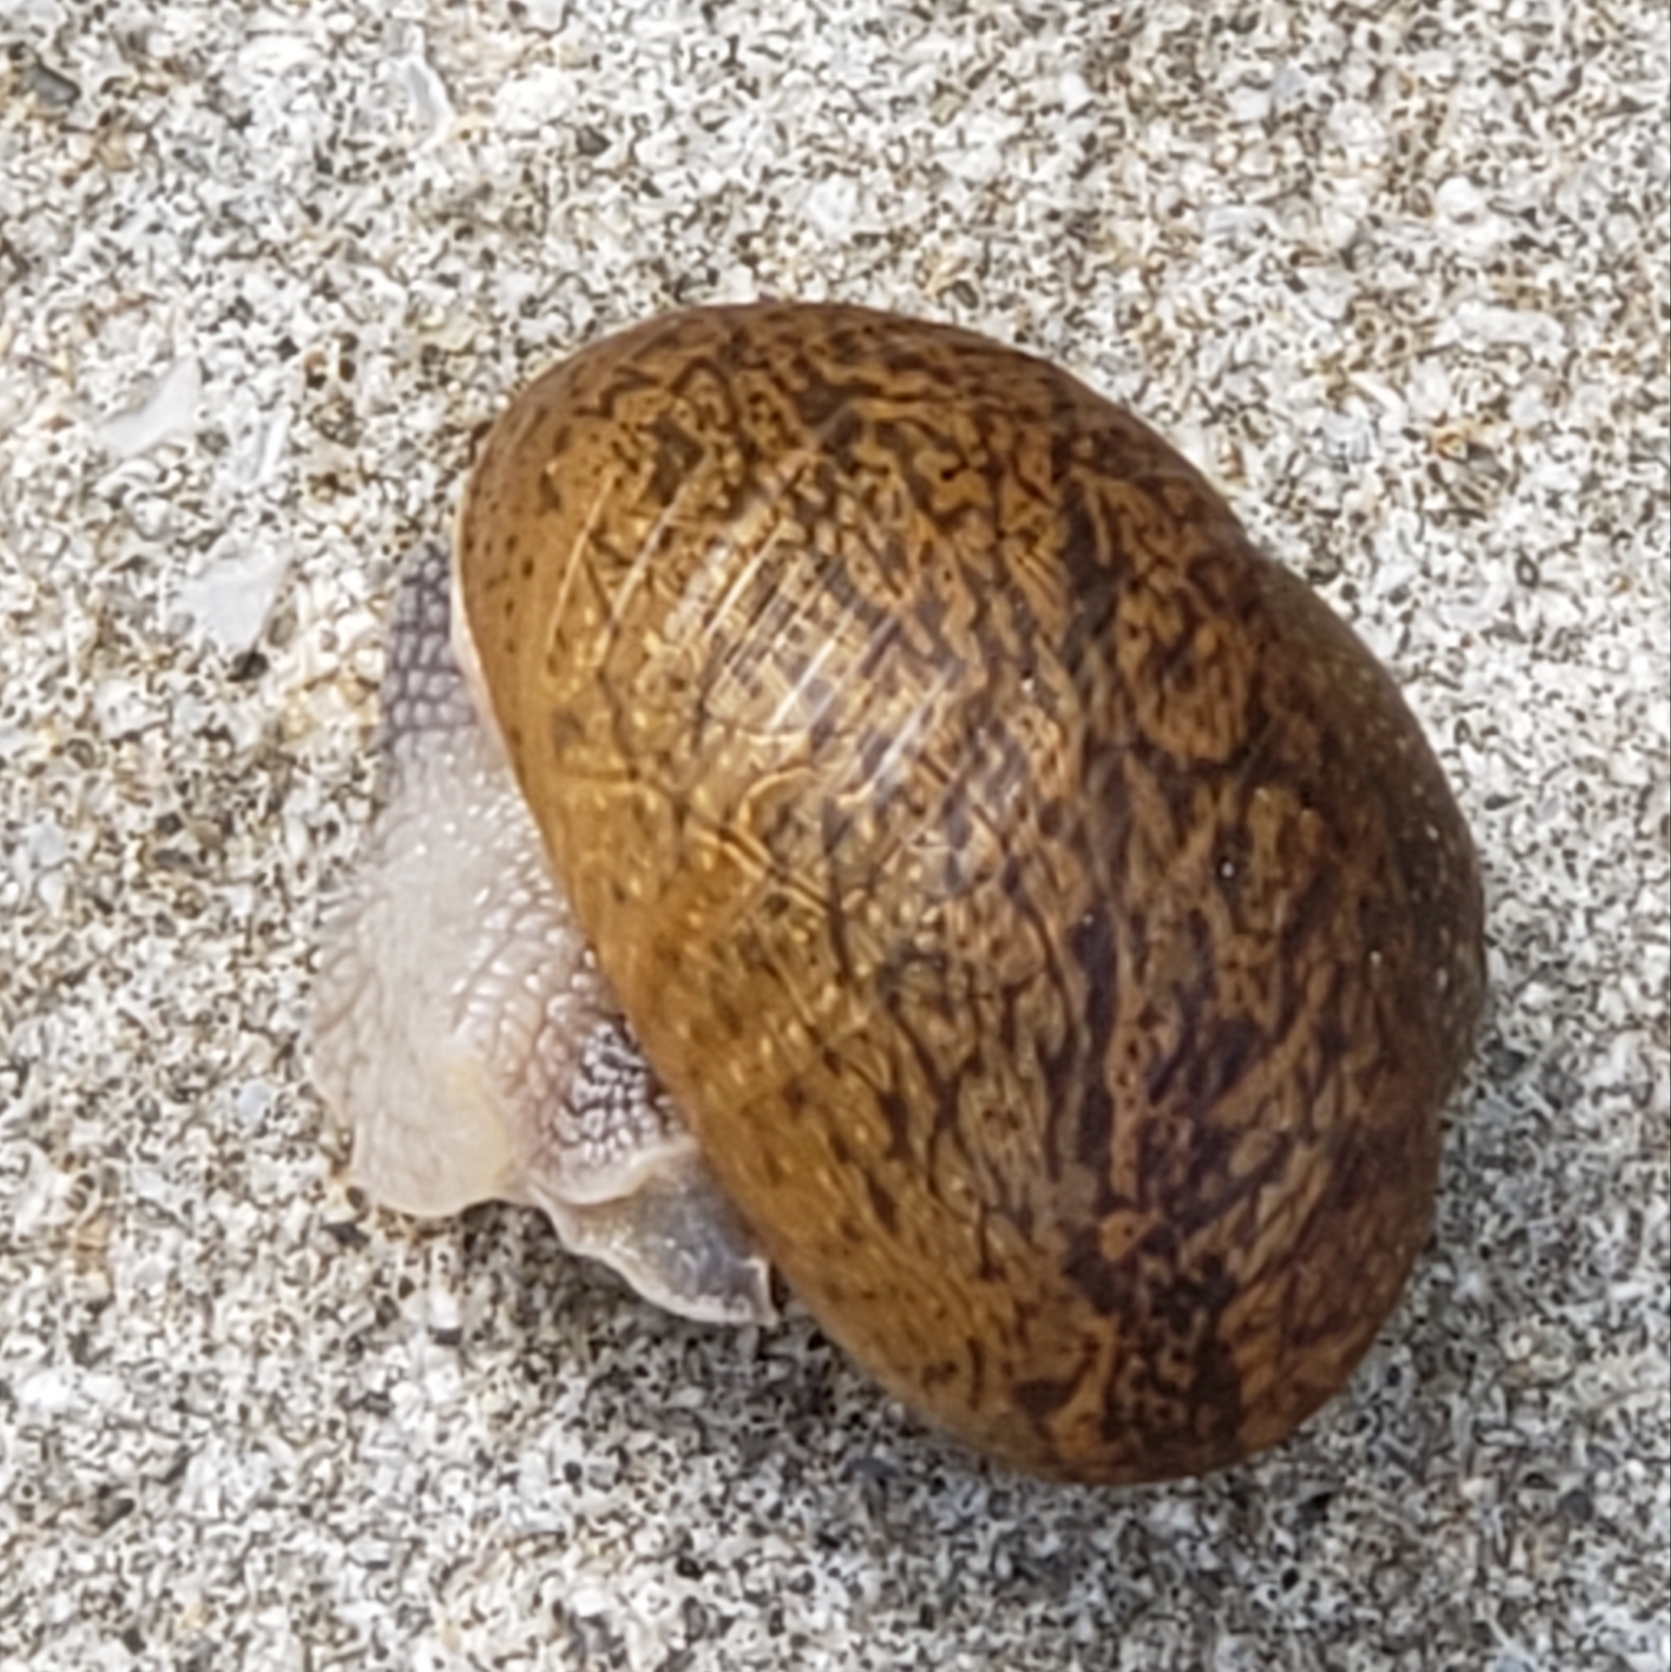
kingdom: Animalia
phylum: Mollusca
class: Gastropoda
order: Stylommatophora
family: Zachrysiidae
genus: Zachrysia
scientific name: Zachrysia provisoria
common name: Garden zachrysia
